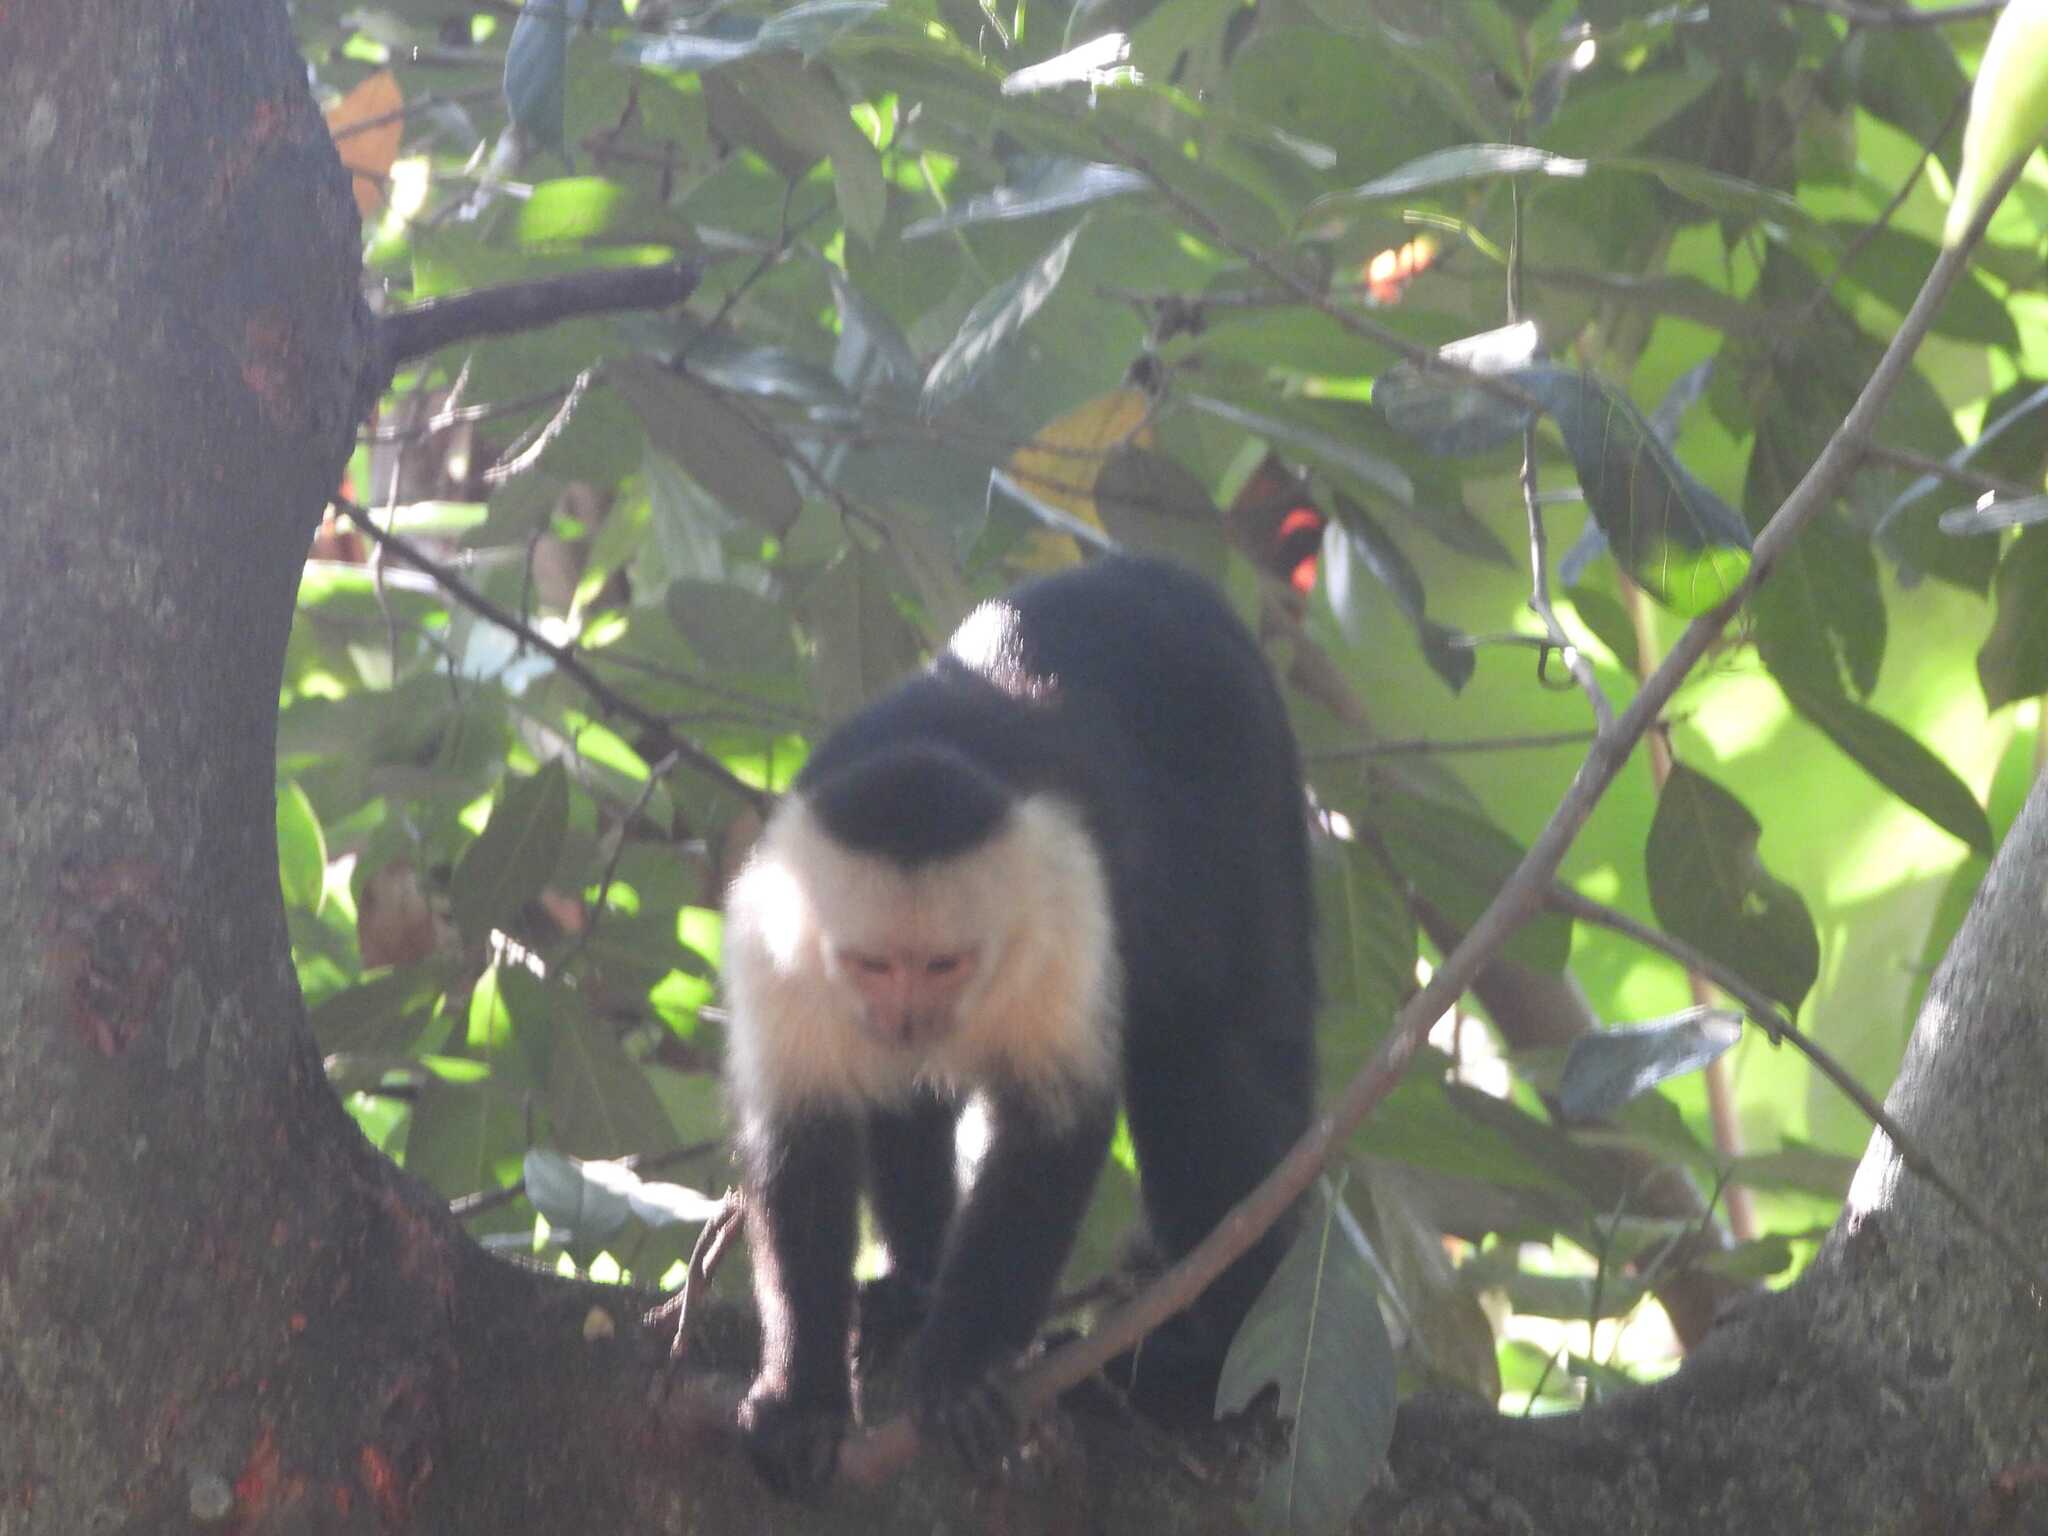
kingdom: Animalia
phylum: Chordata
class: Mammalia
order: Primates
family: Cebidae
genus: Cebus
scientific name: Cebus imitator
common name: Panamanian white-faced capuchin
